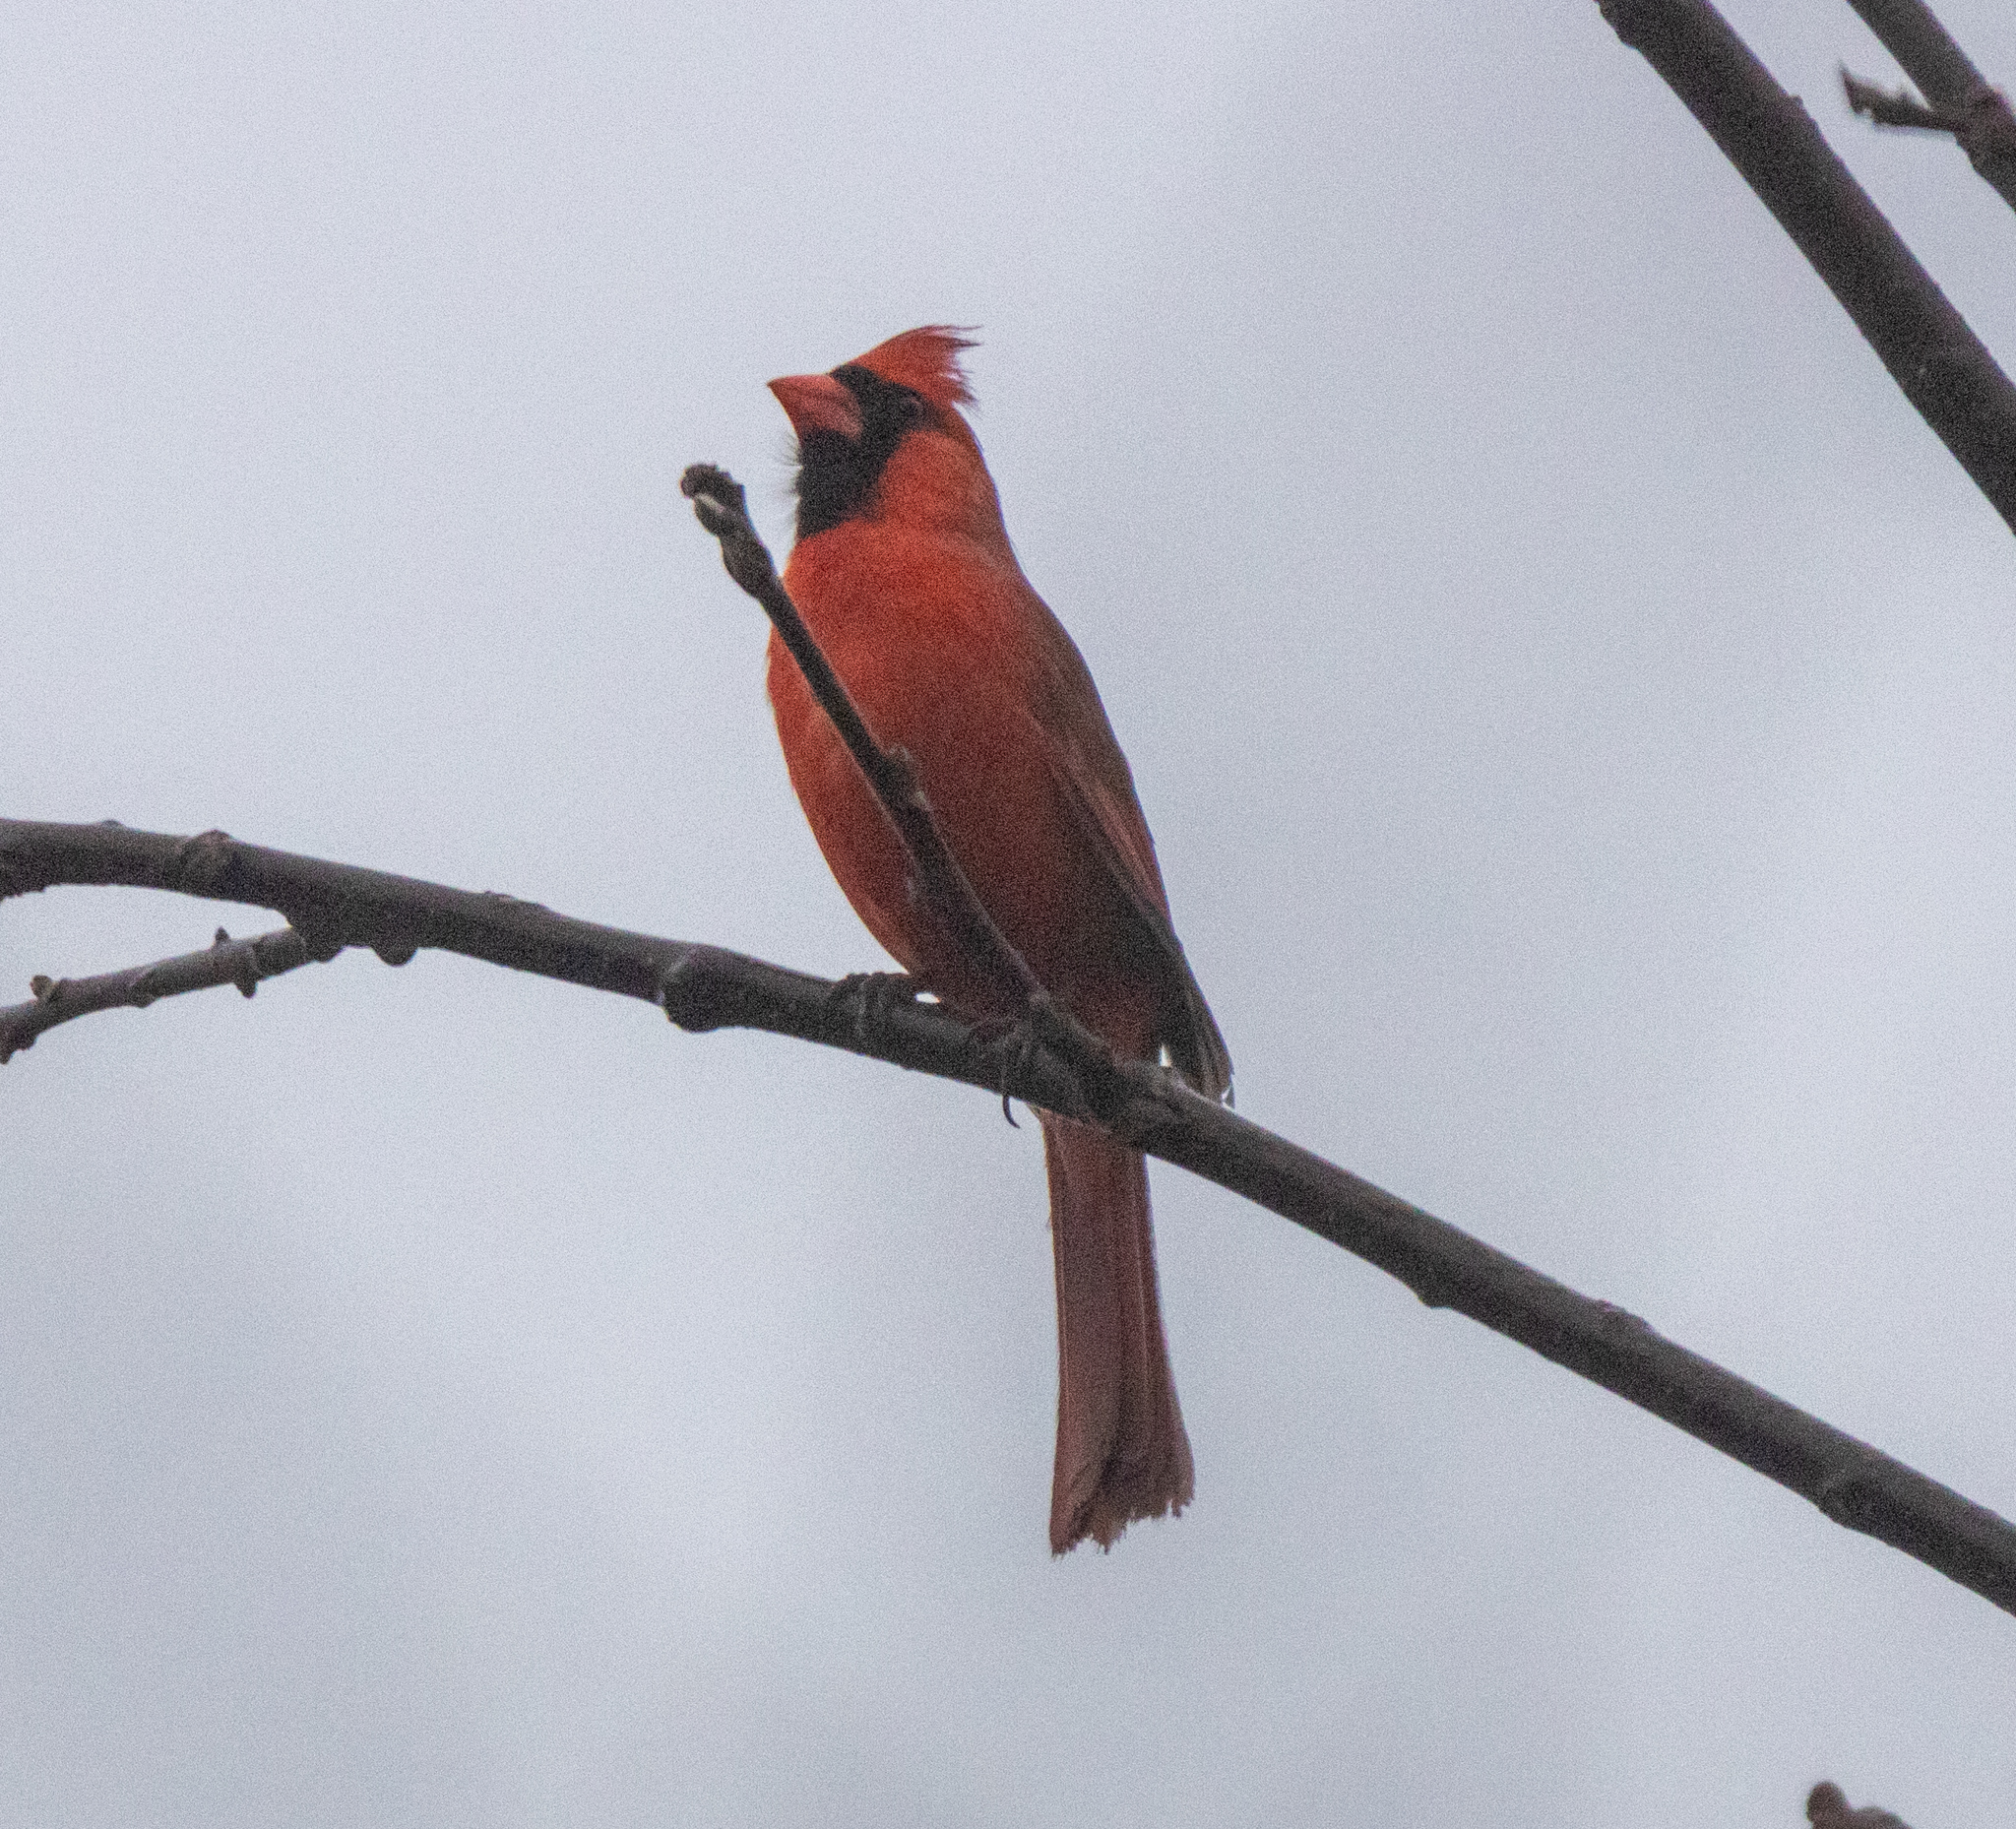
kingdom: Animalia
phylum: Chordata
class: Aves
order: Passeriformes
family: Cardinalidae
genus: Cardinalis
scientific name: Cardinalis cardinalis
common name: Northern cardinal
